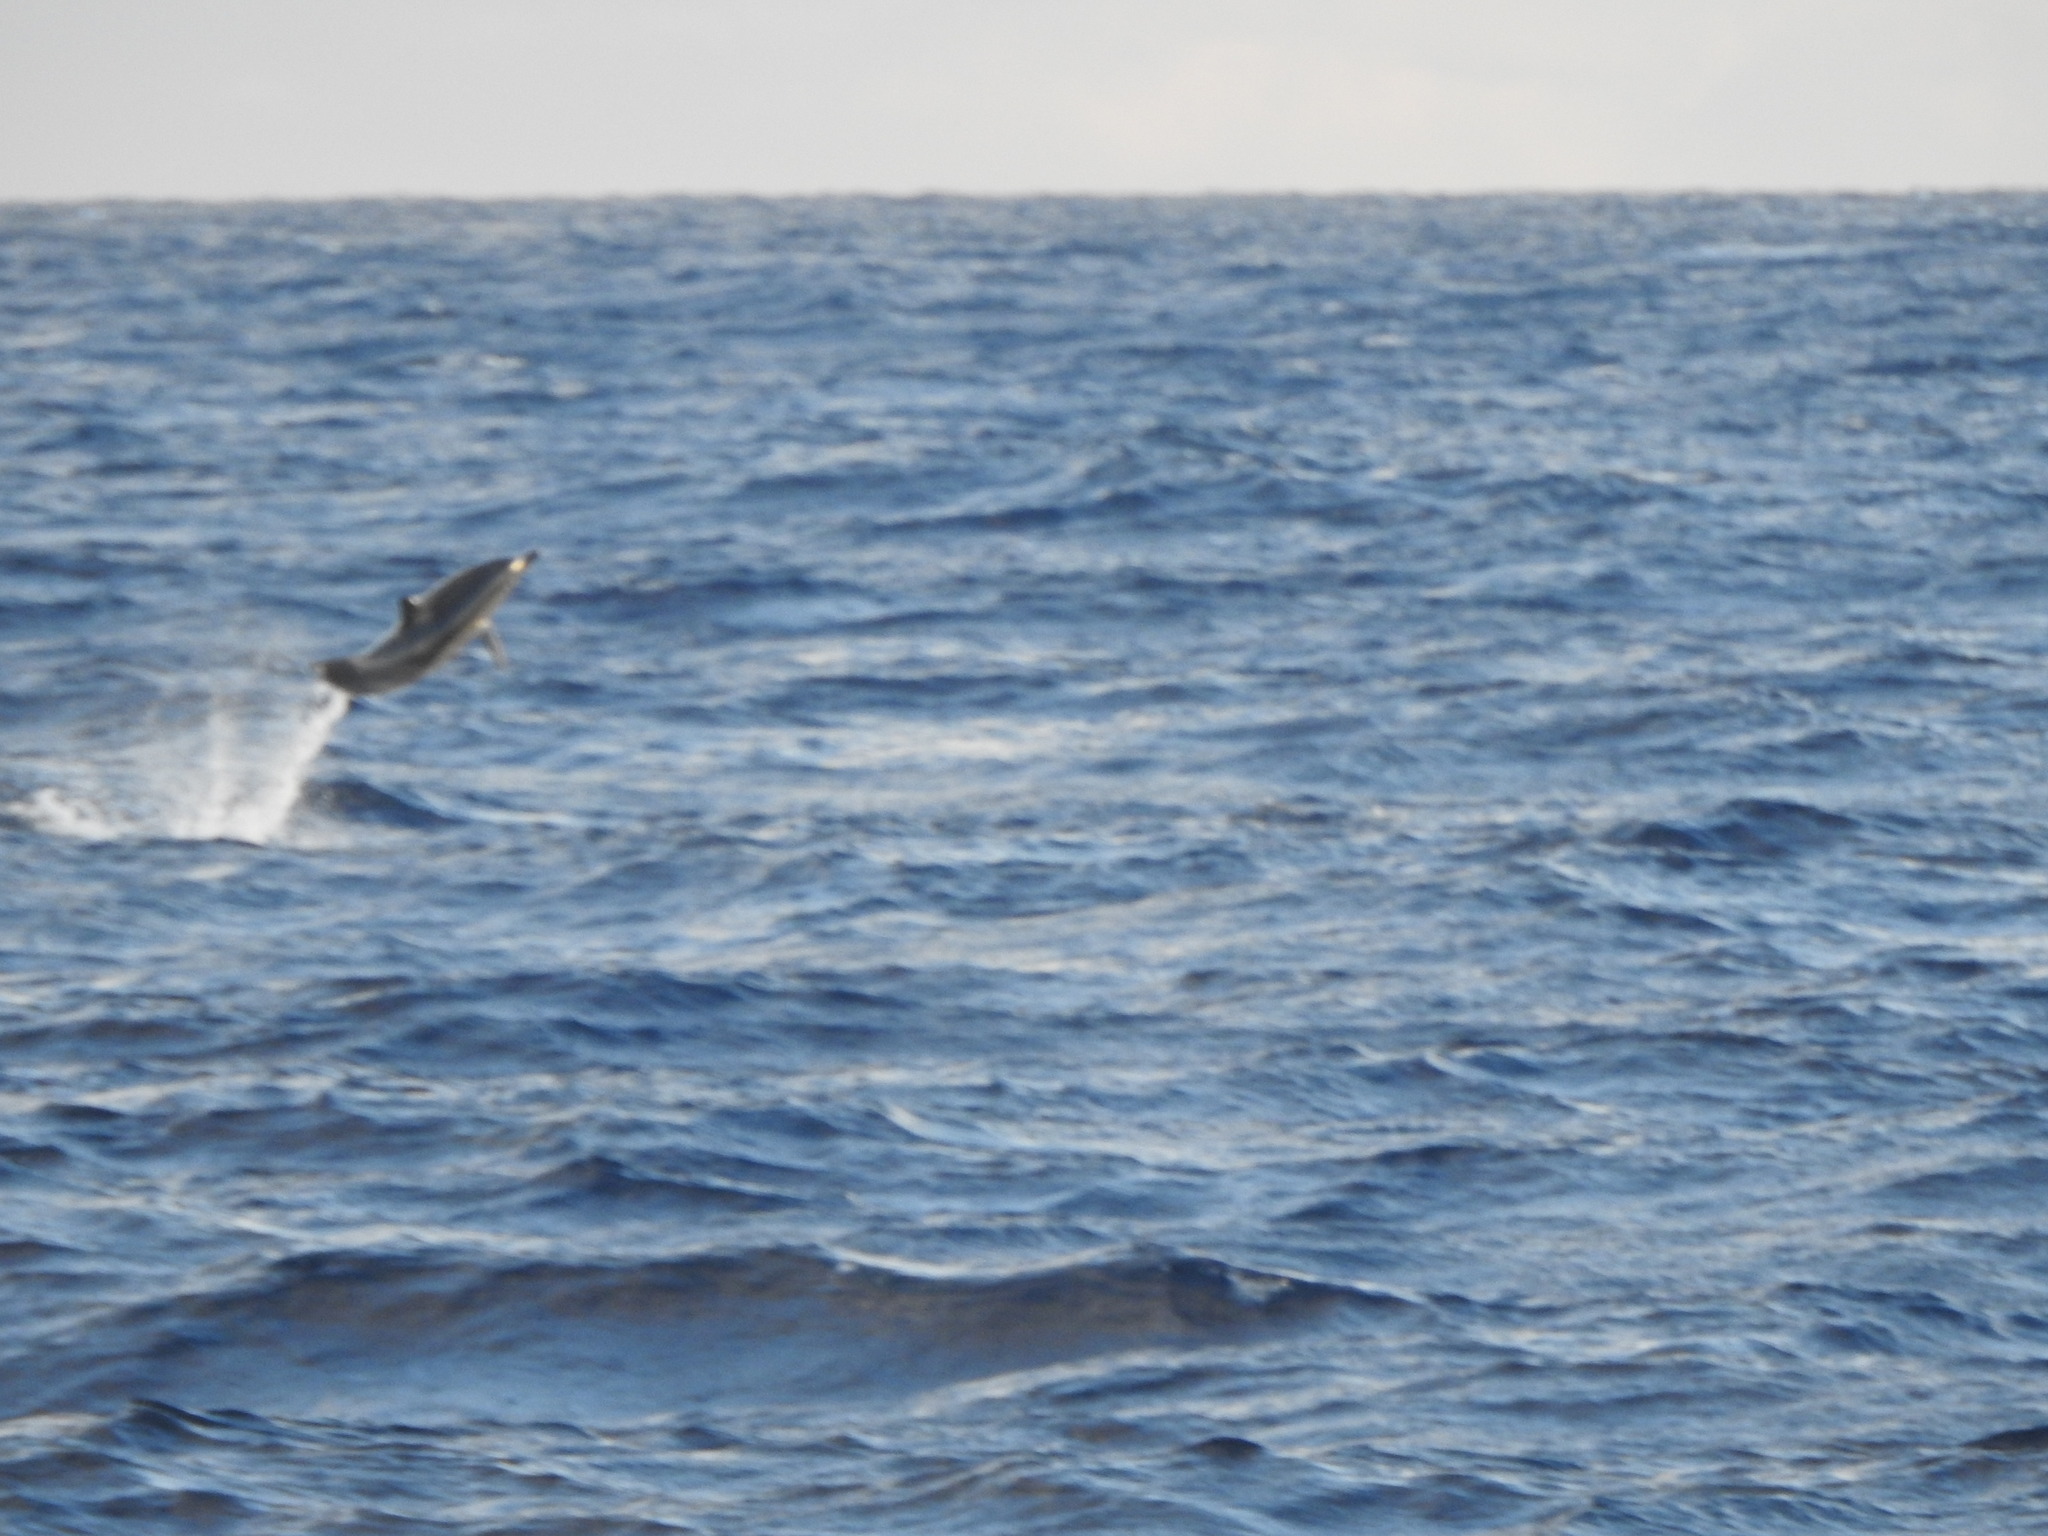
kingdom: Animalia
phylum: Chordata
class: Mammalia
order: Cetacea
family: Delphinidae
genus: Stenella
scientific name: Stenella coeruleoalba
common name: Striped dolphin
